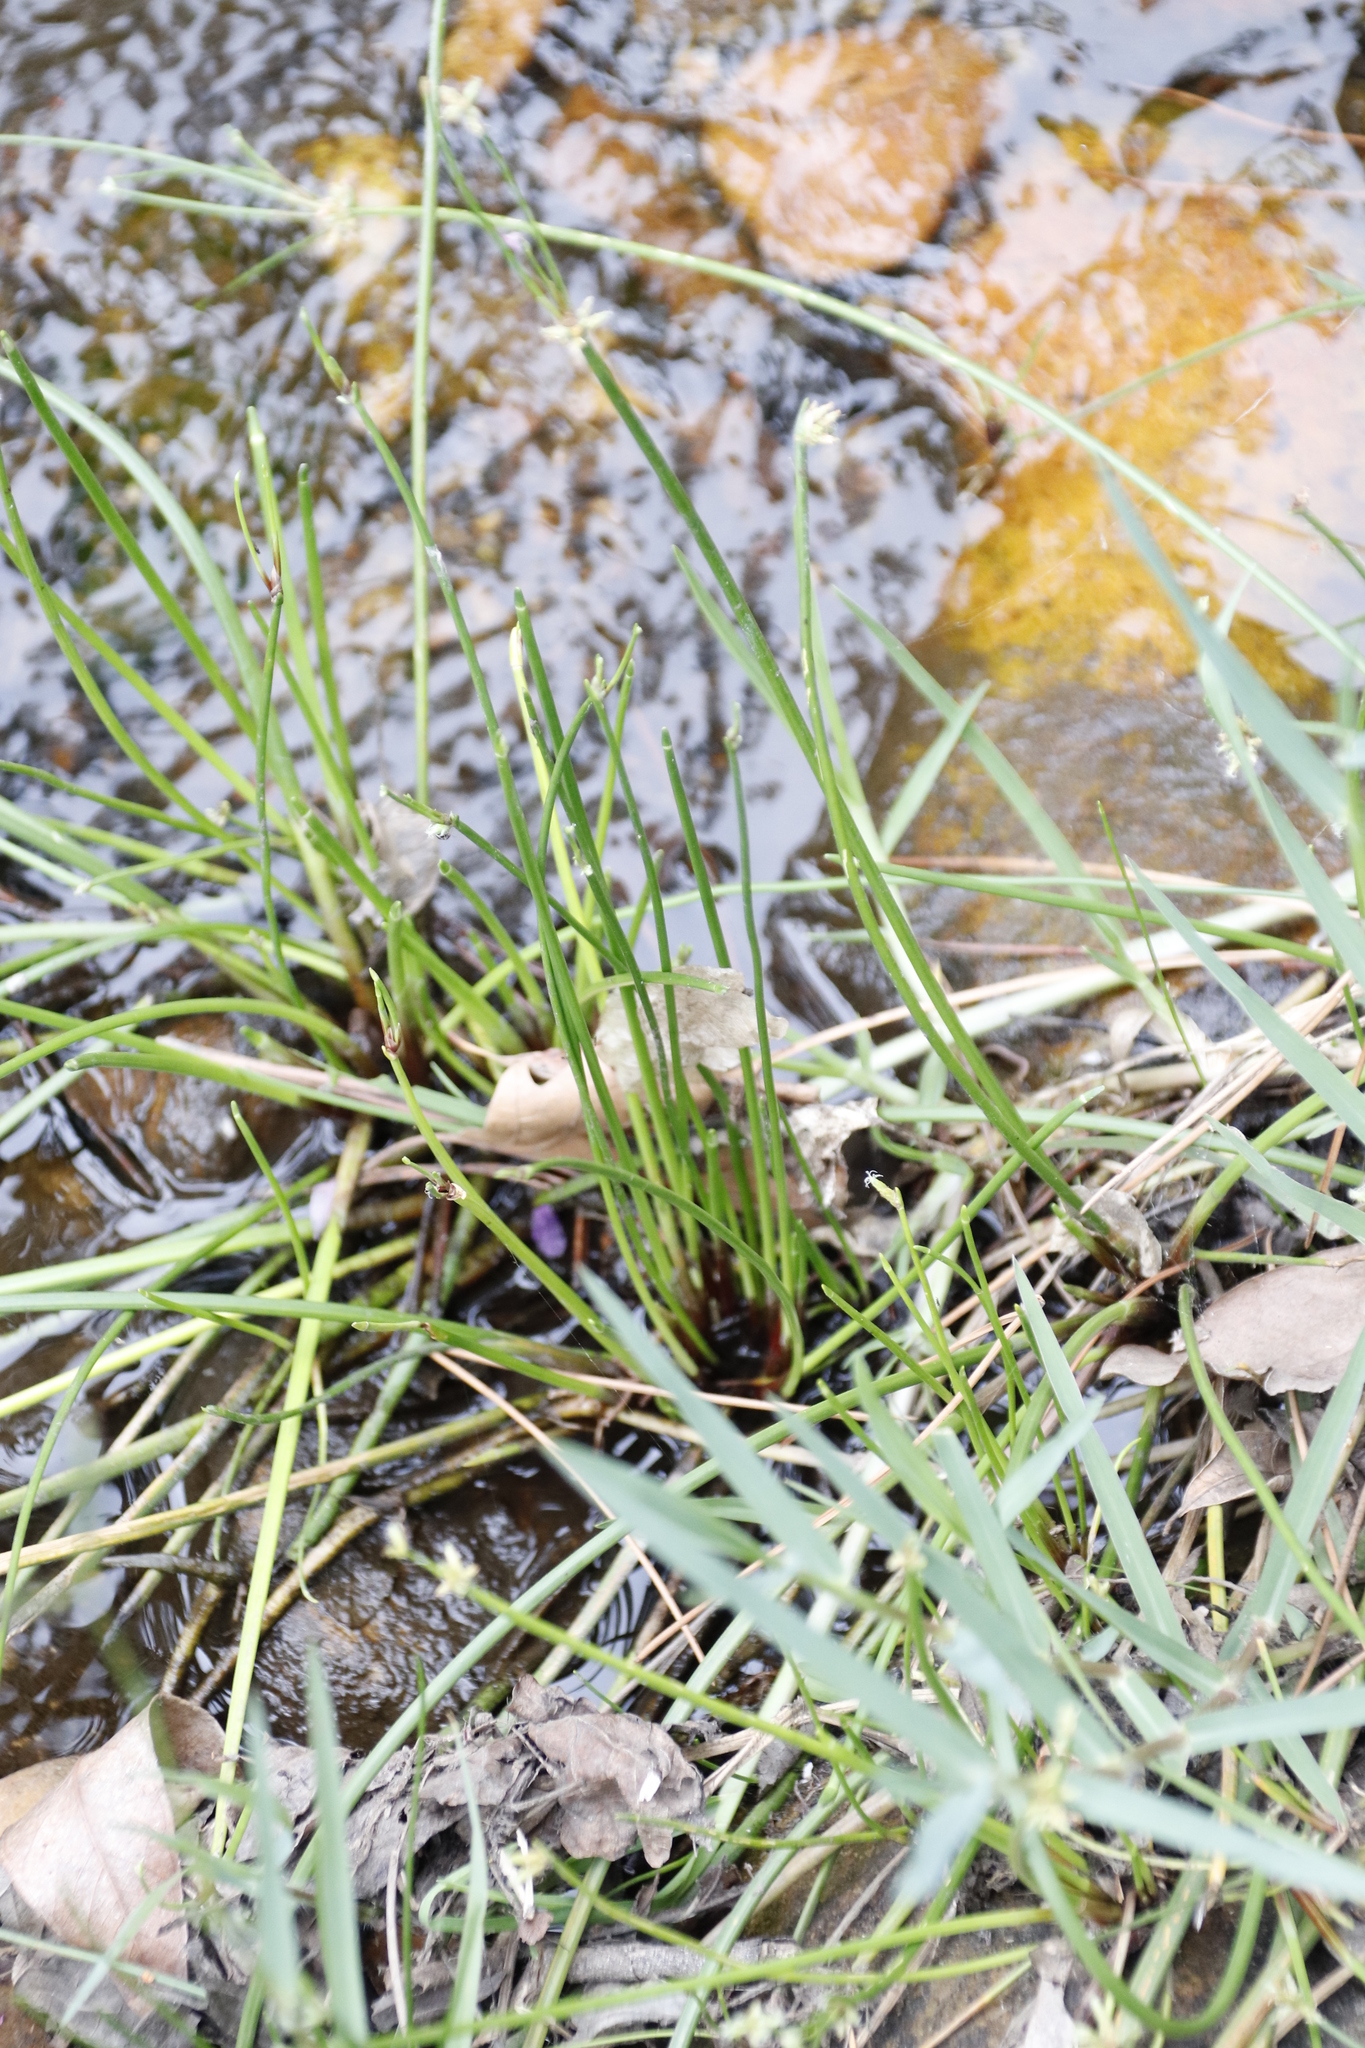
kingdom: Plantae
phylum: Tracheophyta
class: Liliopsida
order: Poales
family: Cyperaceae
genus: Isolepis
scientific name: Isolepis prolifera
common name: Proliferating bulrush
